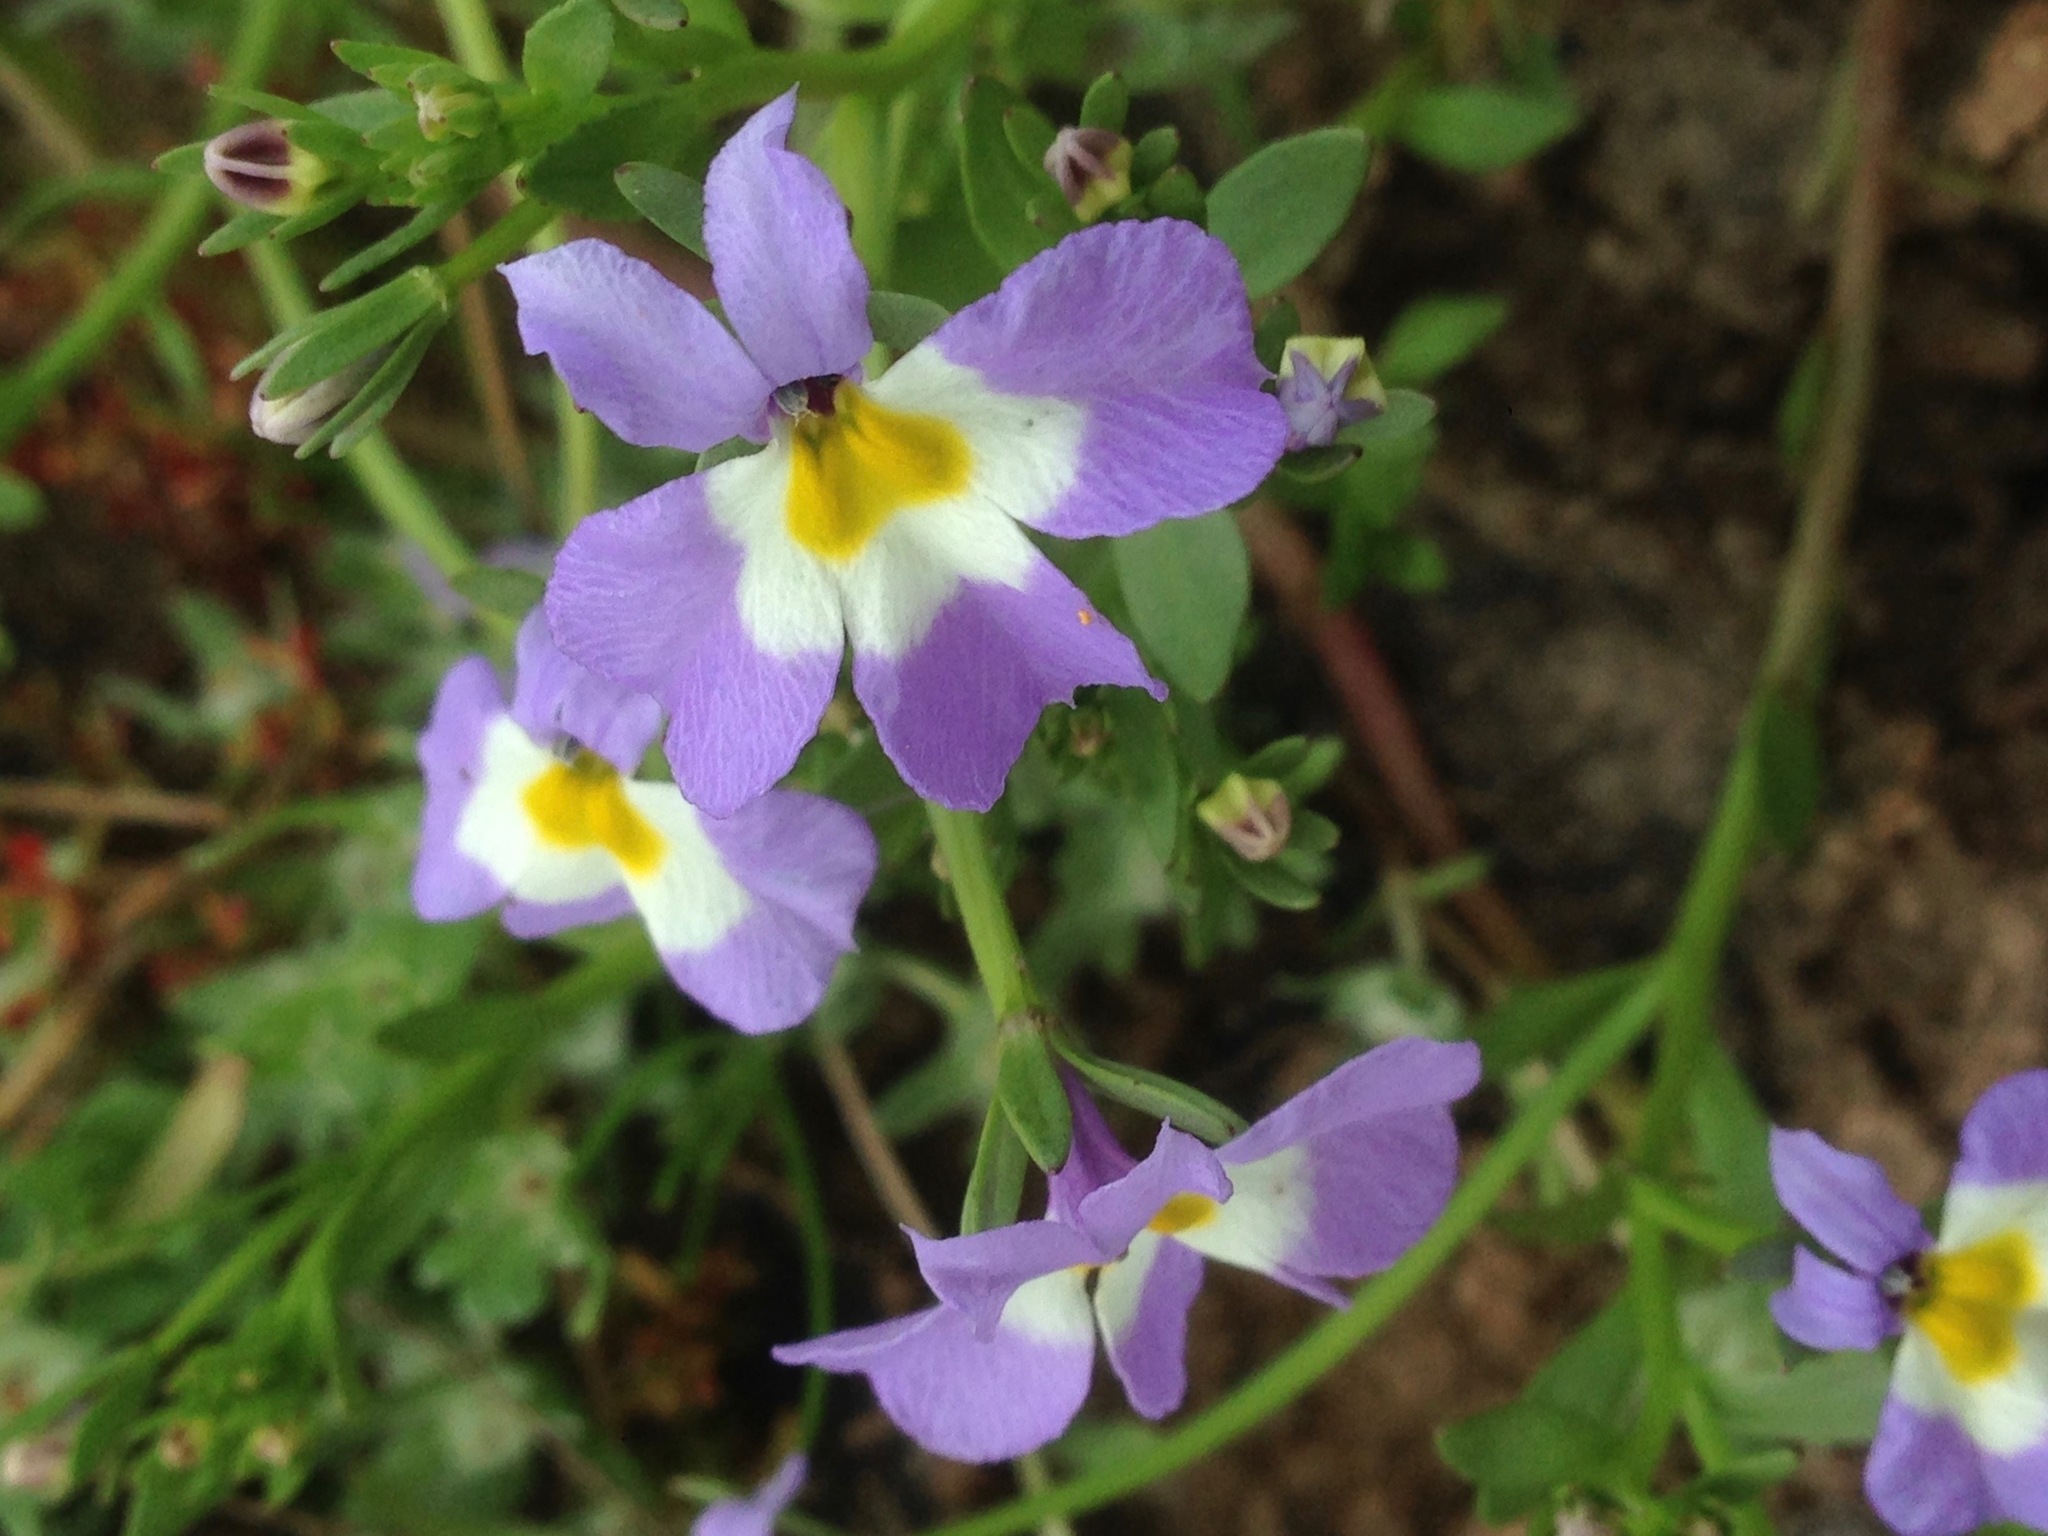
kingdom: Plantae
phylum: Tracheophyta
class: Magnoliopsida
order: Asterales
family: Campanulaceae
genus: Downingia
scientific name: Downingia cuspidata
